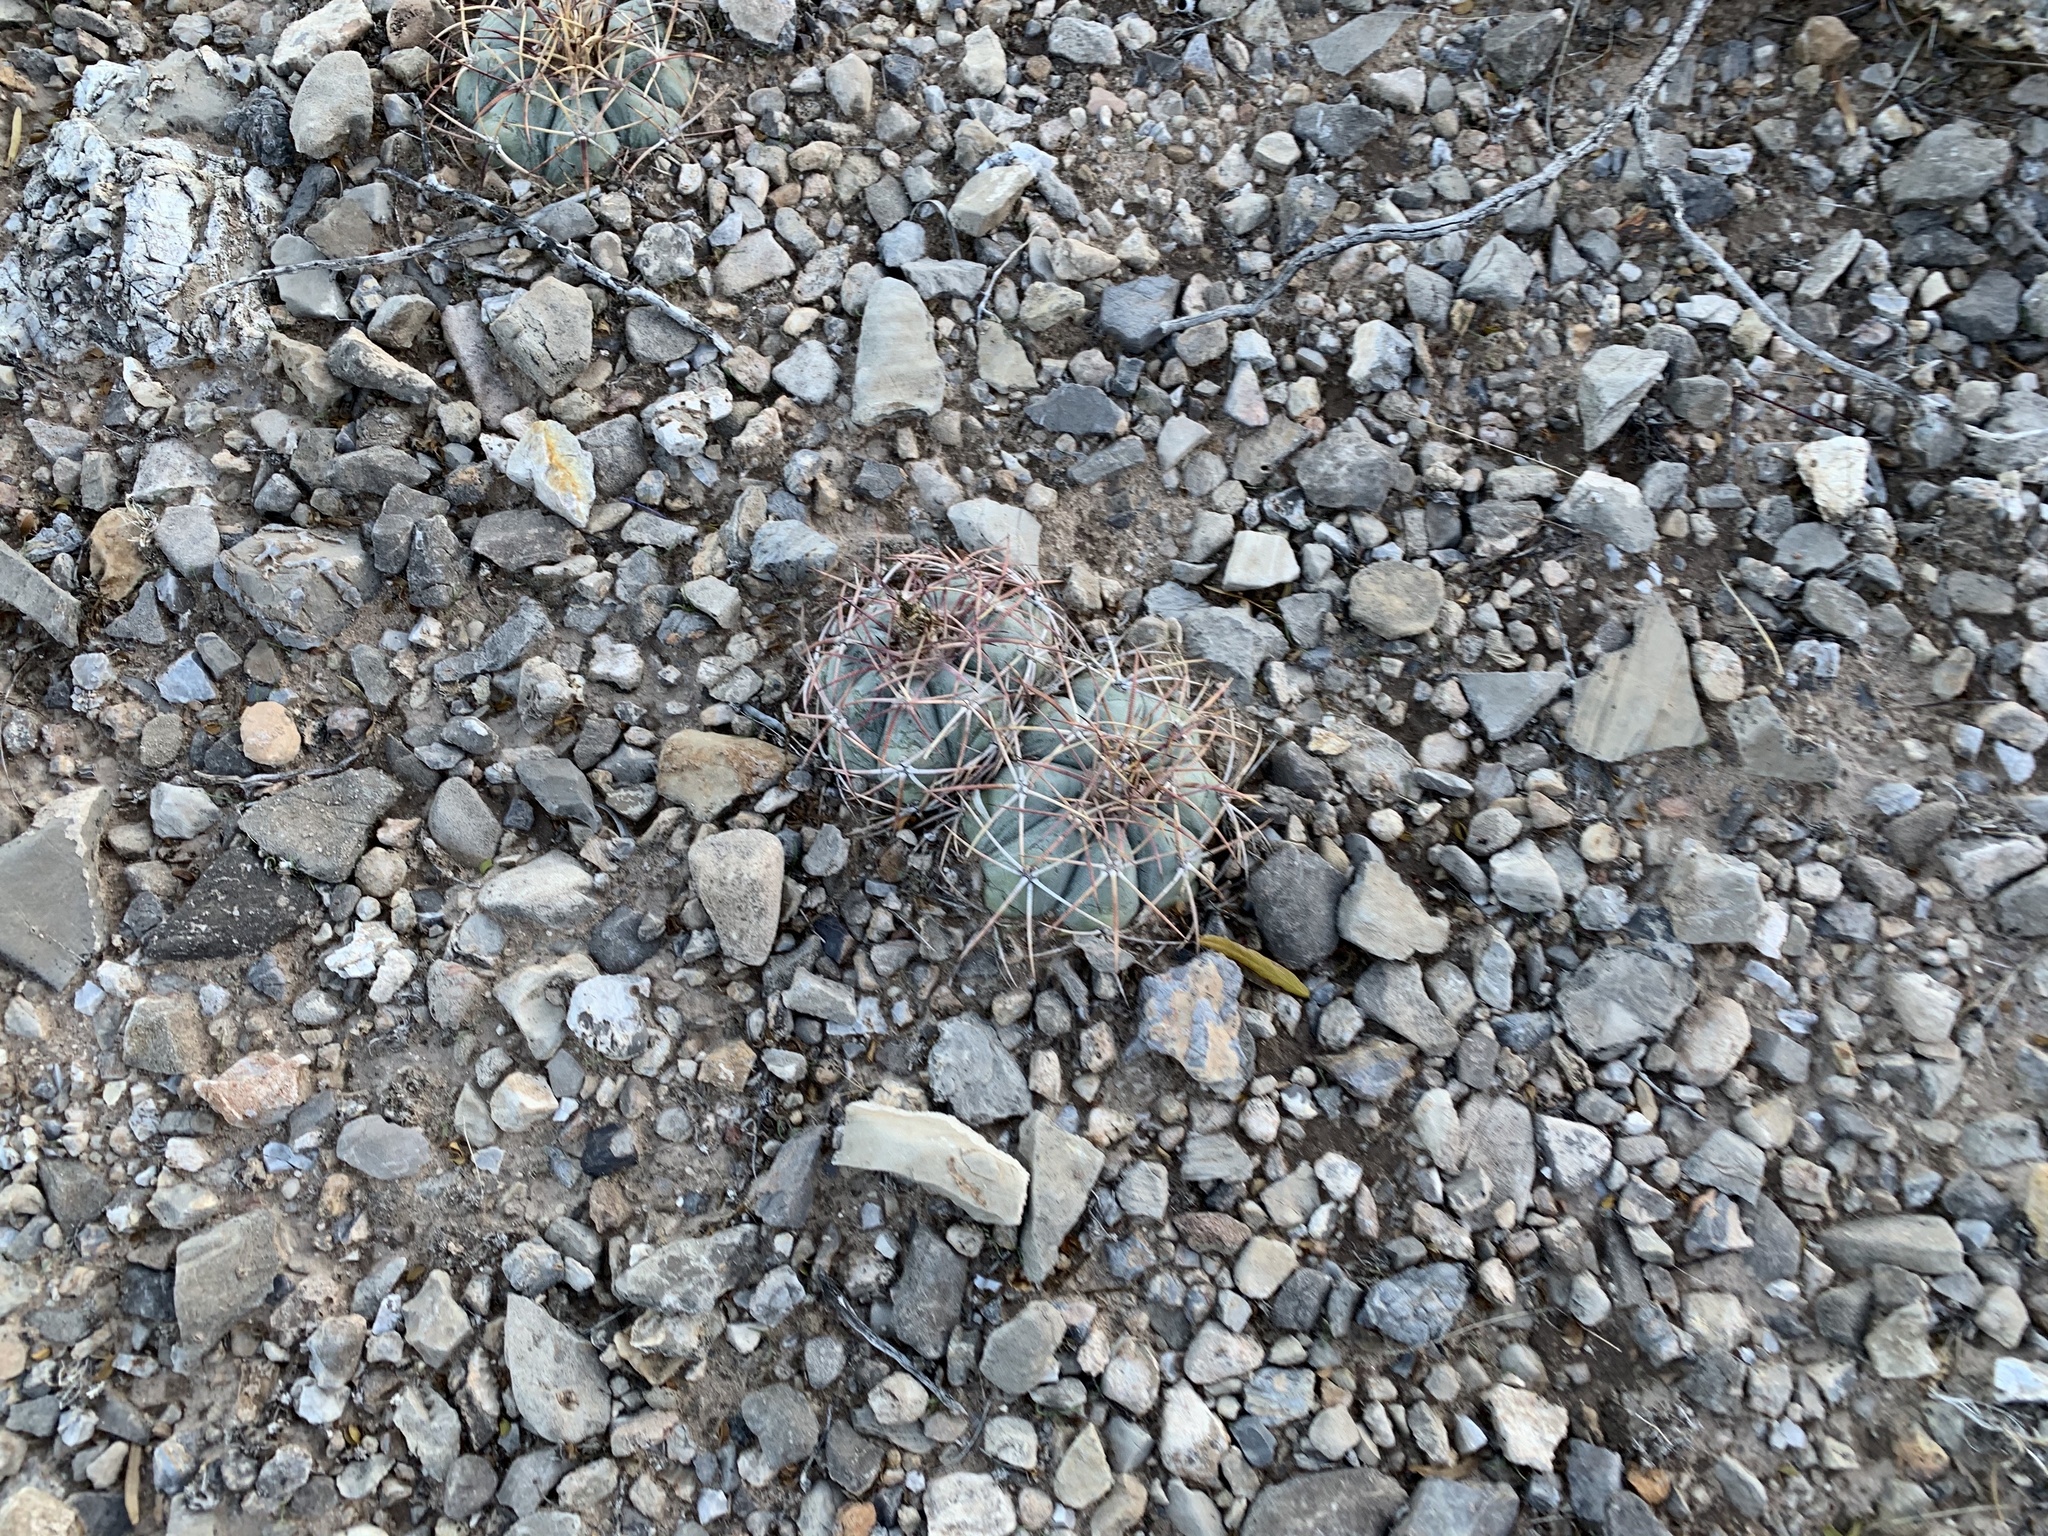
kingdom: Plantae
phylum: Tracheophyta
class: Magnoliopsida
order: Caryophyllales
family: Cactaceae
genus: Echinocactus
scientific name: Echinocactus horizonthalonius
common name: Devilshead
